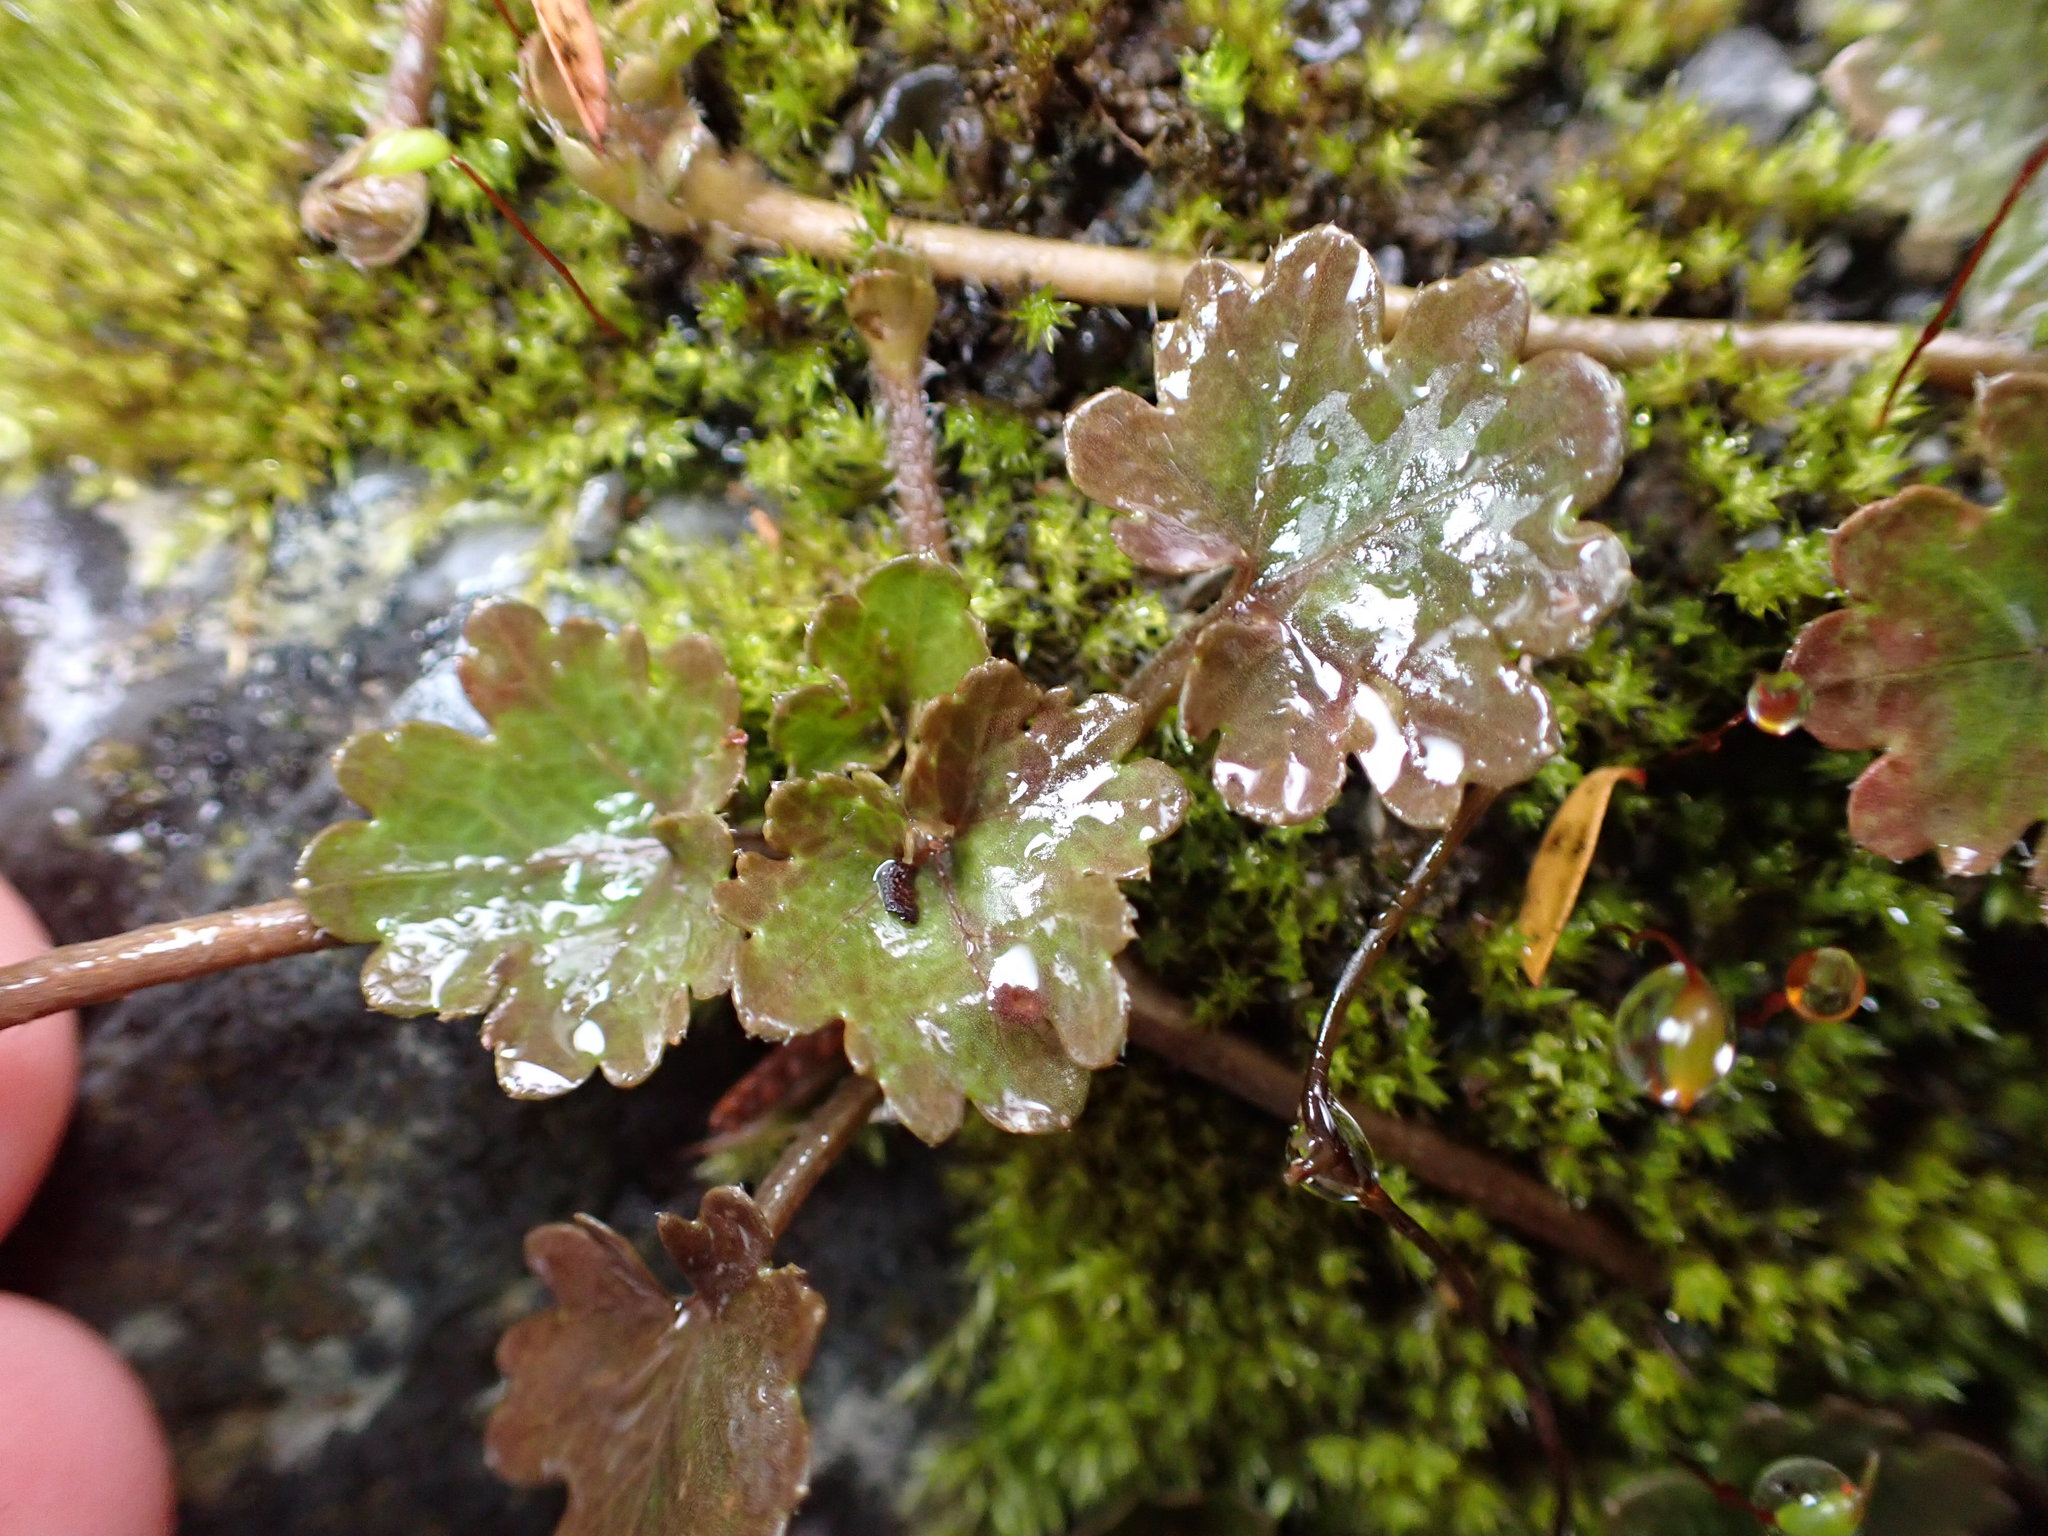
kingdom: Plantae
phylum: Tracheophyta
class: Magnoliopsida
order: Gunnerales
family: Gunneraceae
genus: Gunnera
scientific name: Gunnera monoica
